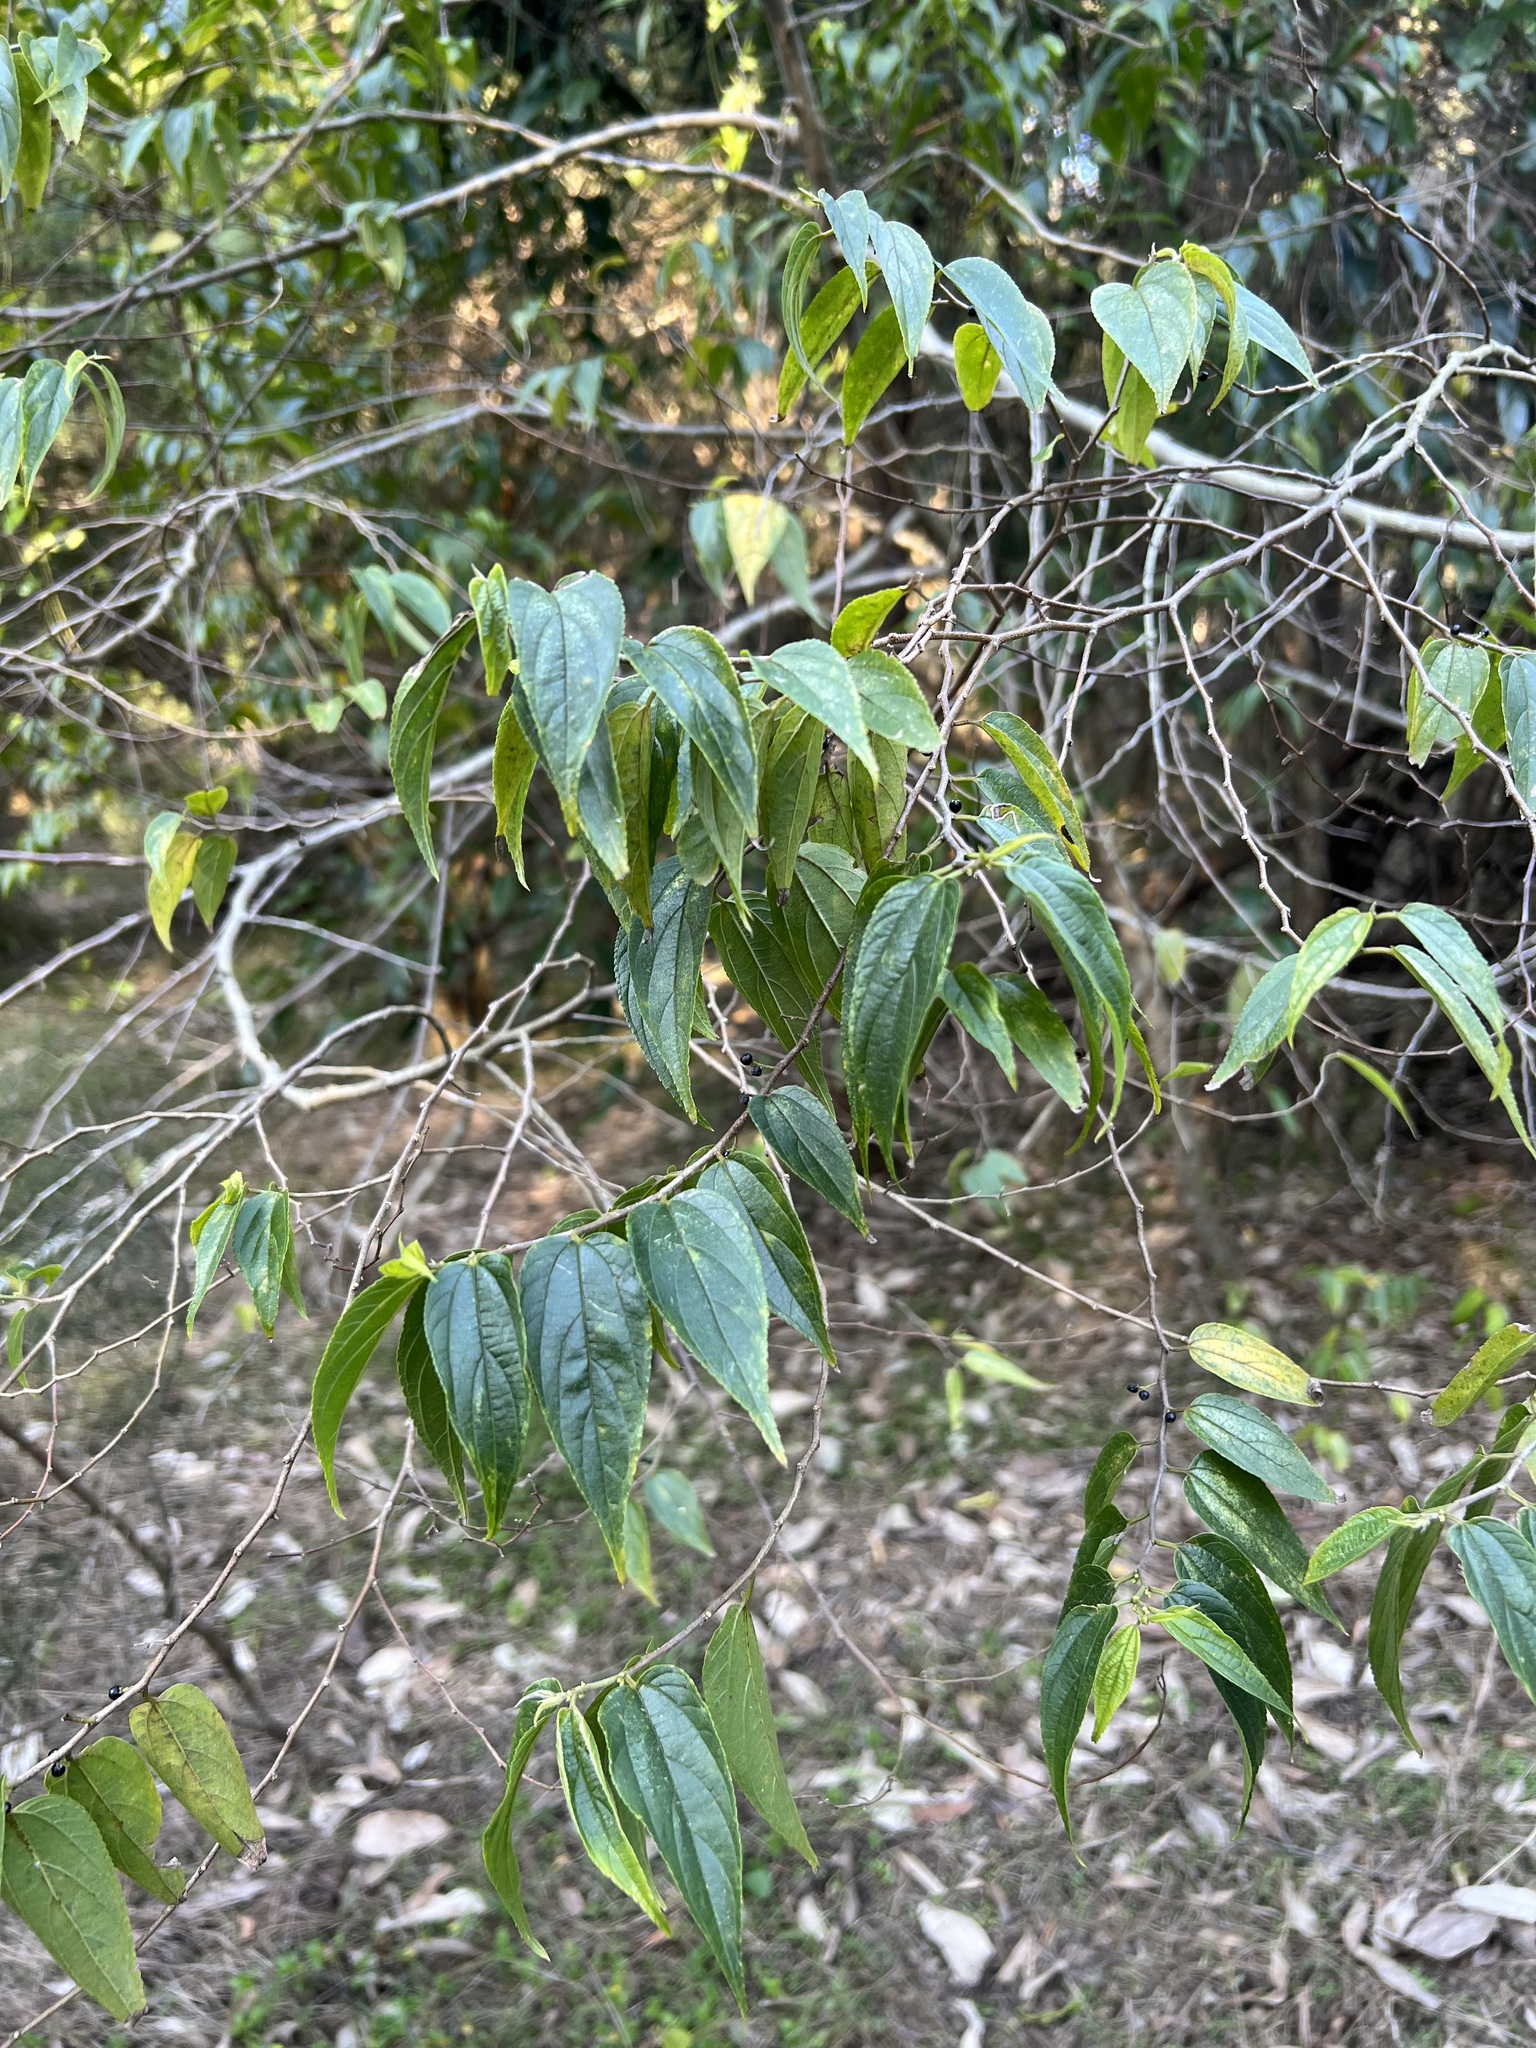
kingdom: Plantae
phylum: Tracheophyta
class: Magnoliopsida
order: Rosales
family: Cannabaceae
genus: Trema
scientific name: Trema tomentosum
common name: Peach-leaf-poisonbush
